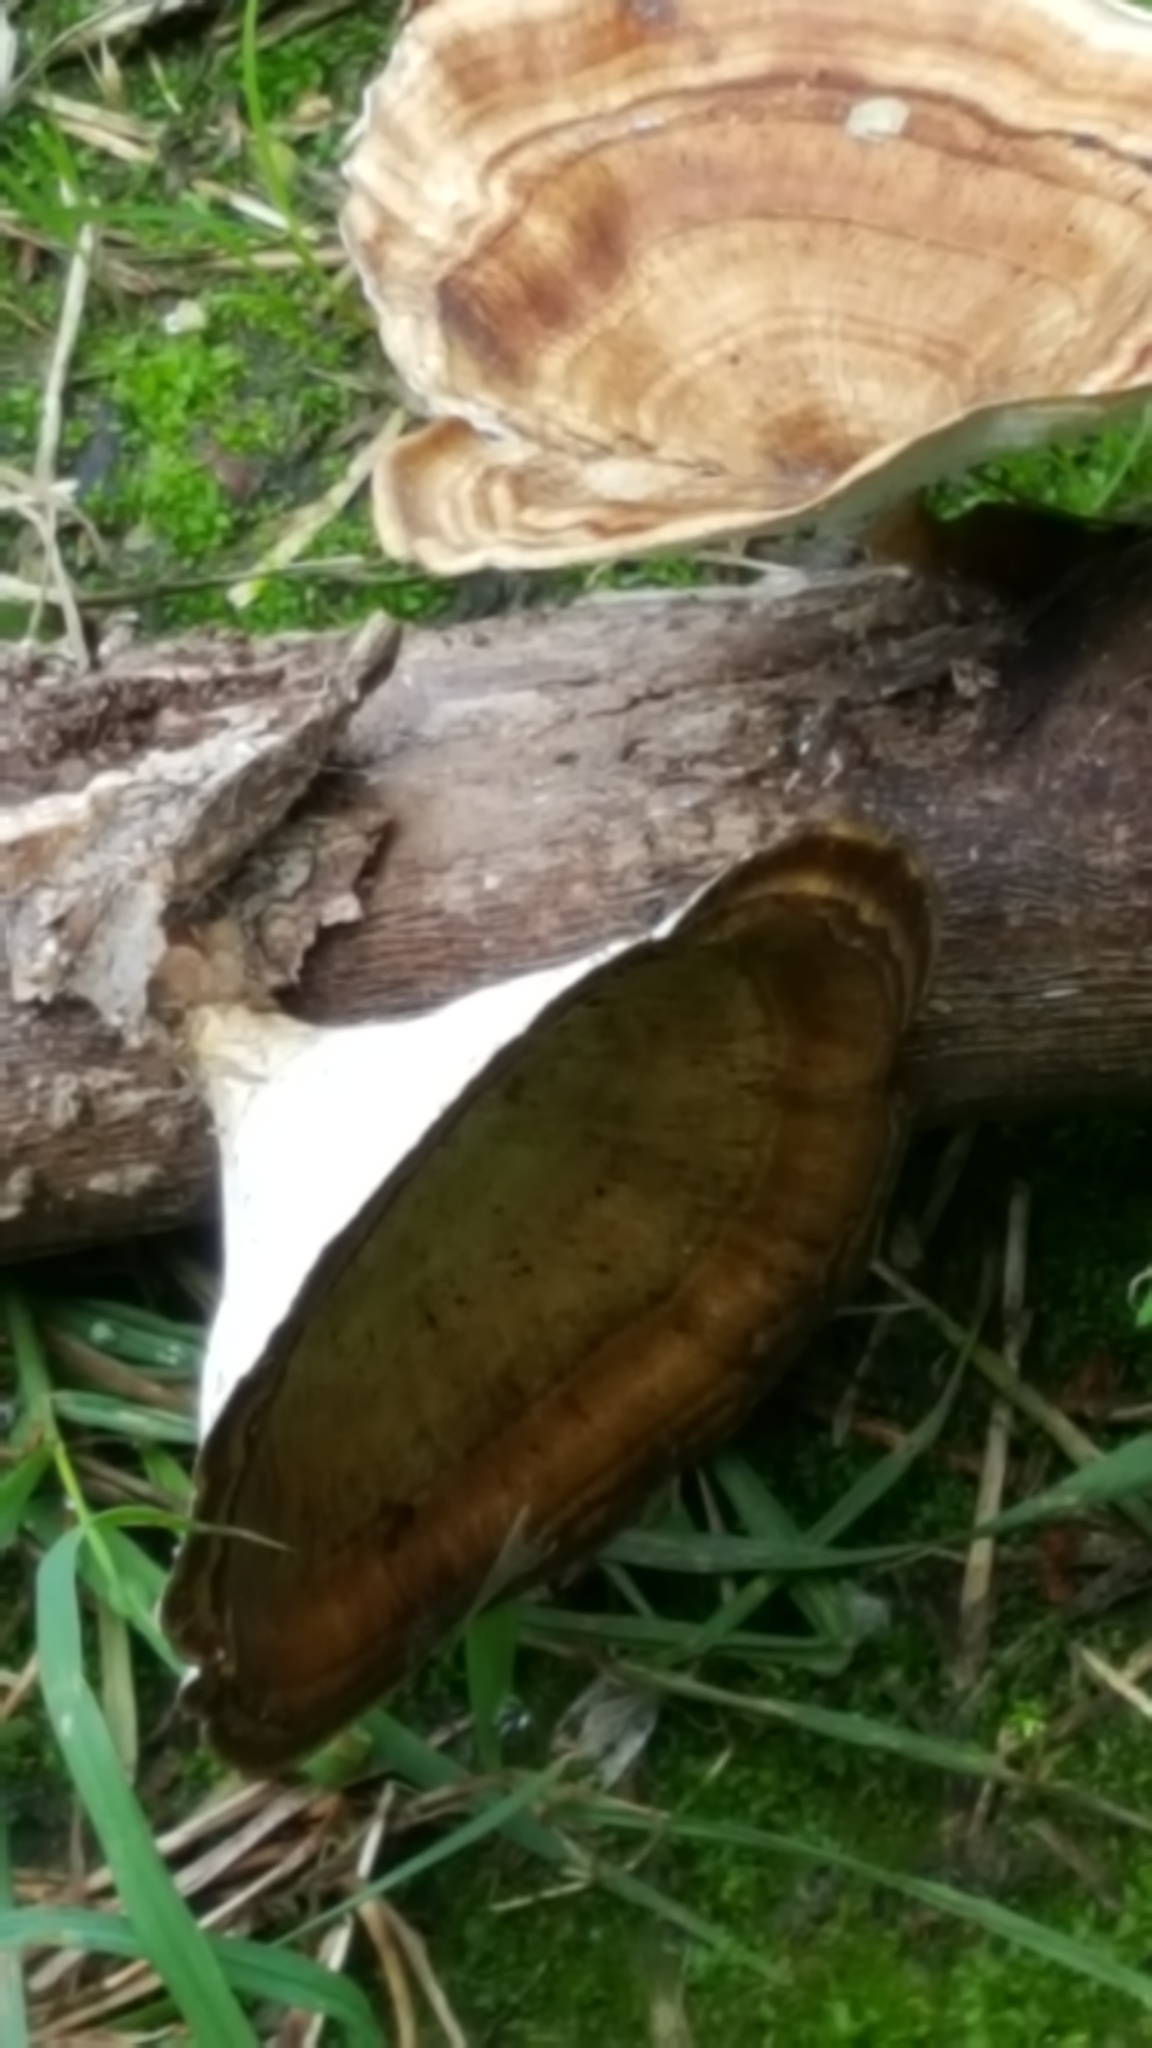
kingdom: Fungi
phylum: Basidiomycota
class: Agaricomycetes
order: Polyporales
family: Polyporaceae
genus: Microporus
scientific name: Microporus xanthopus
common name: Yellow-stemmed micropore
